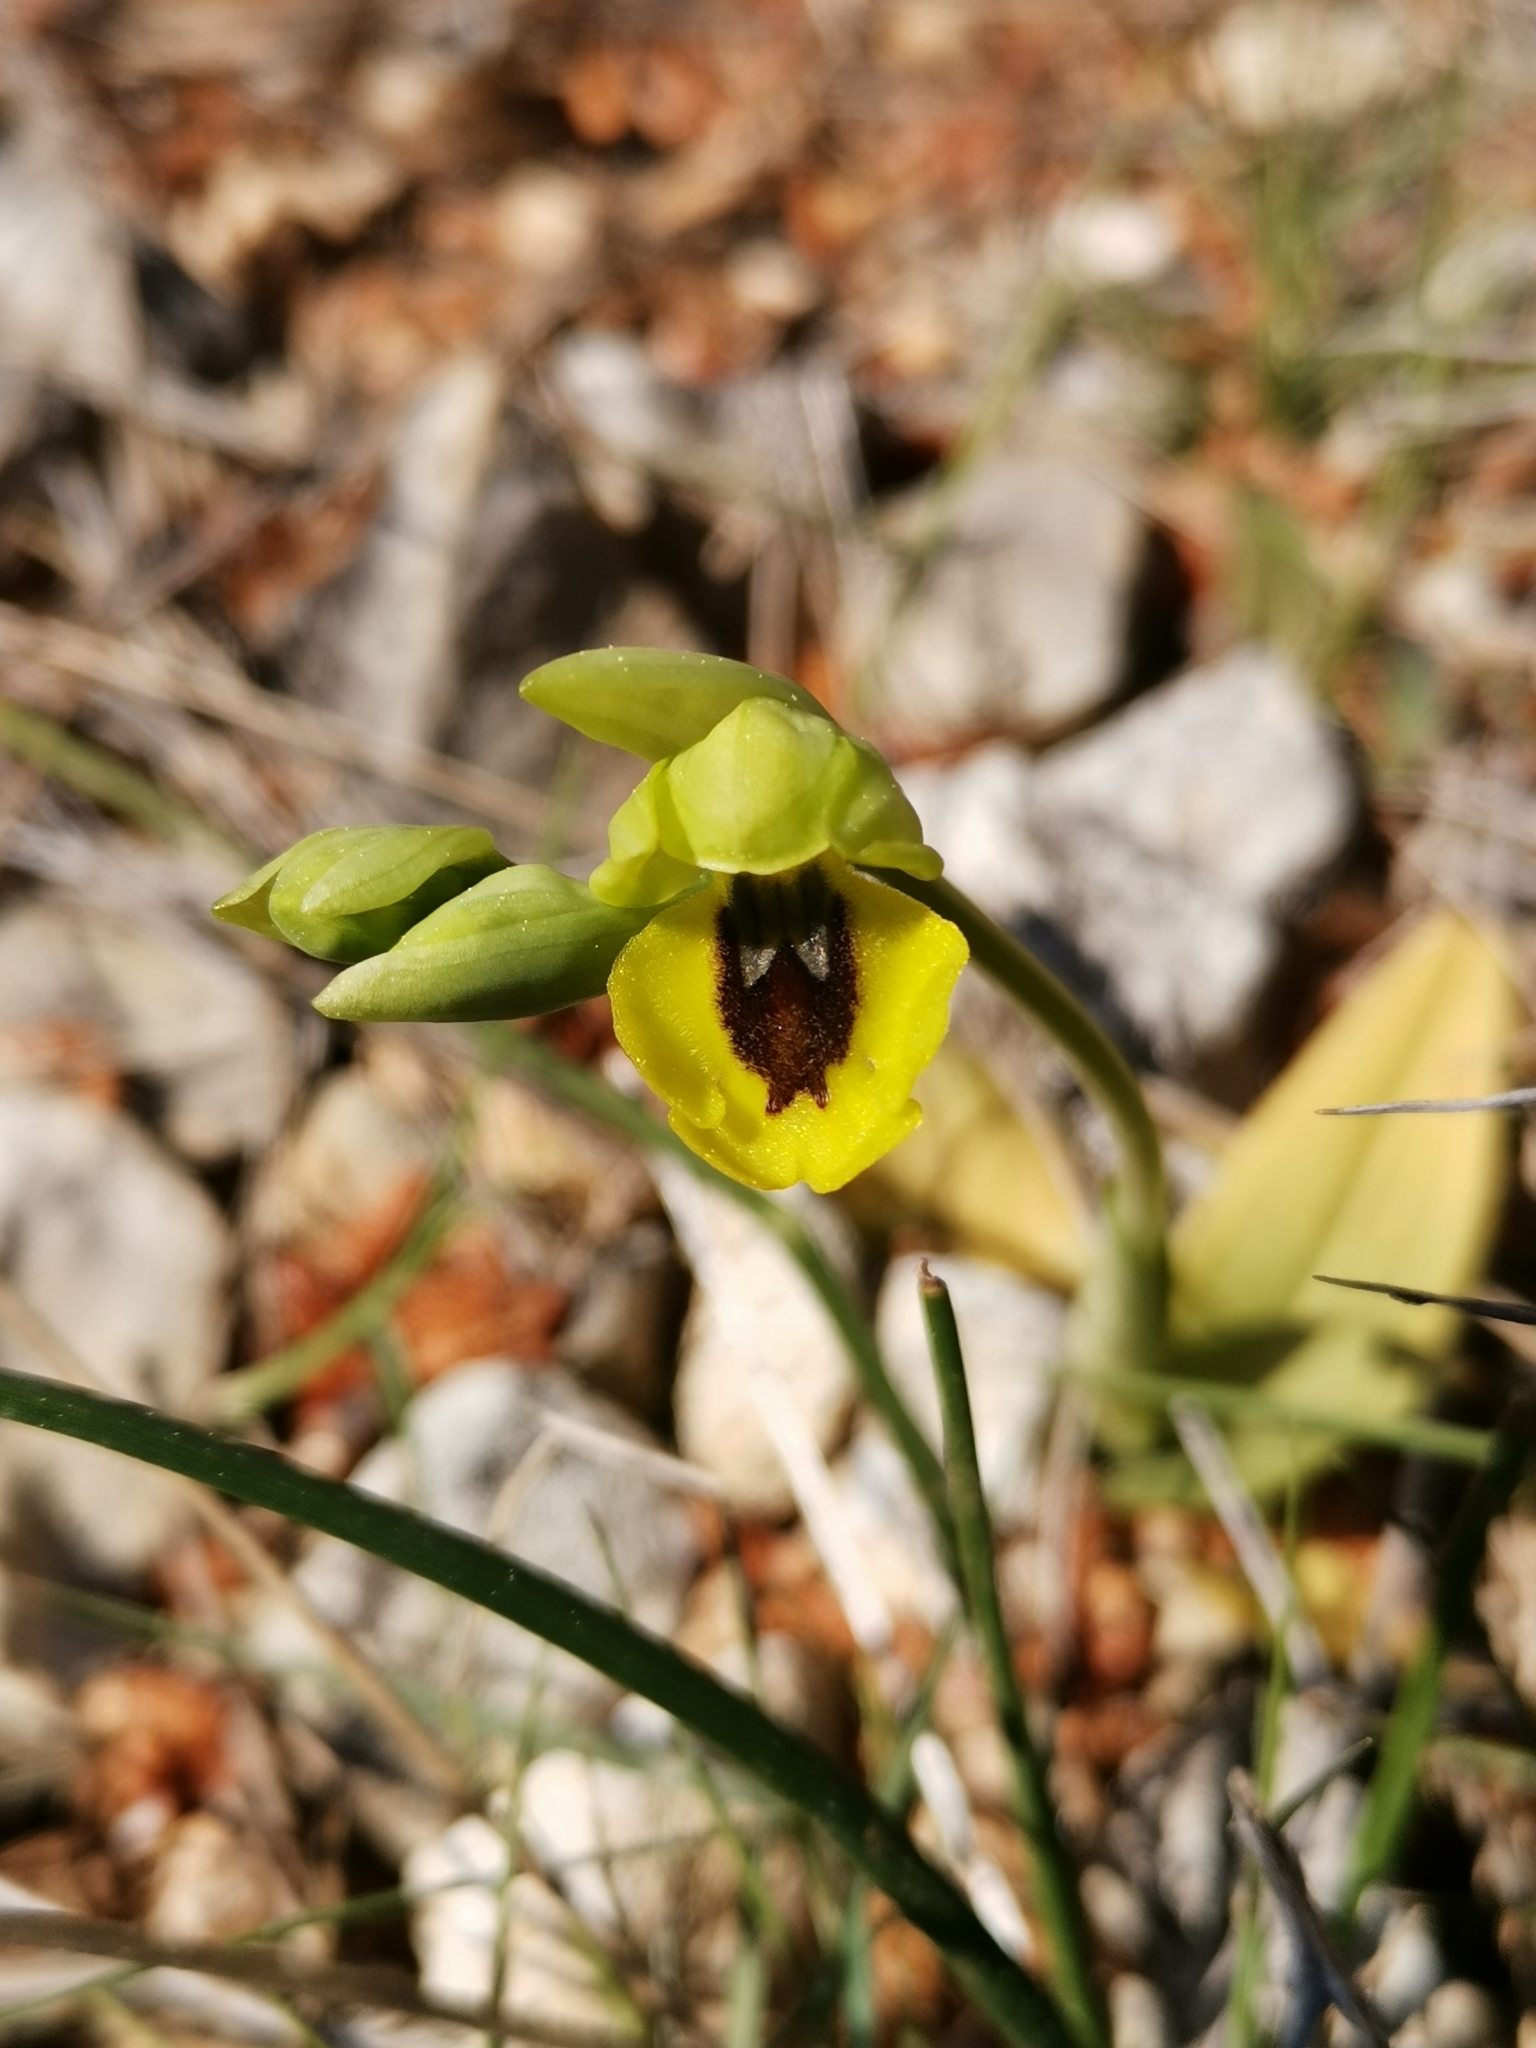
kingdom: Plantae
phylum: Tracheophyta
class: Liliopsida
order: Asparagales
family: Orchidaceae
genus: Ophrys
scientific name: Ophrys lutea
